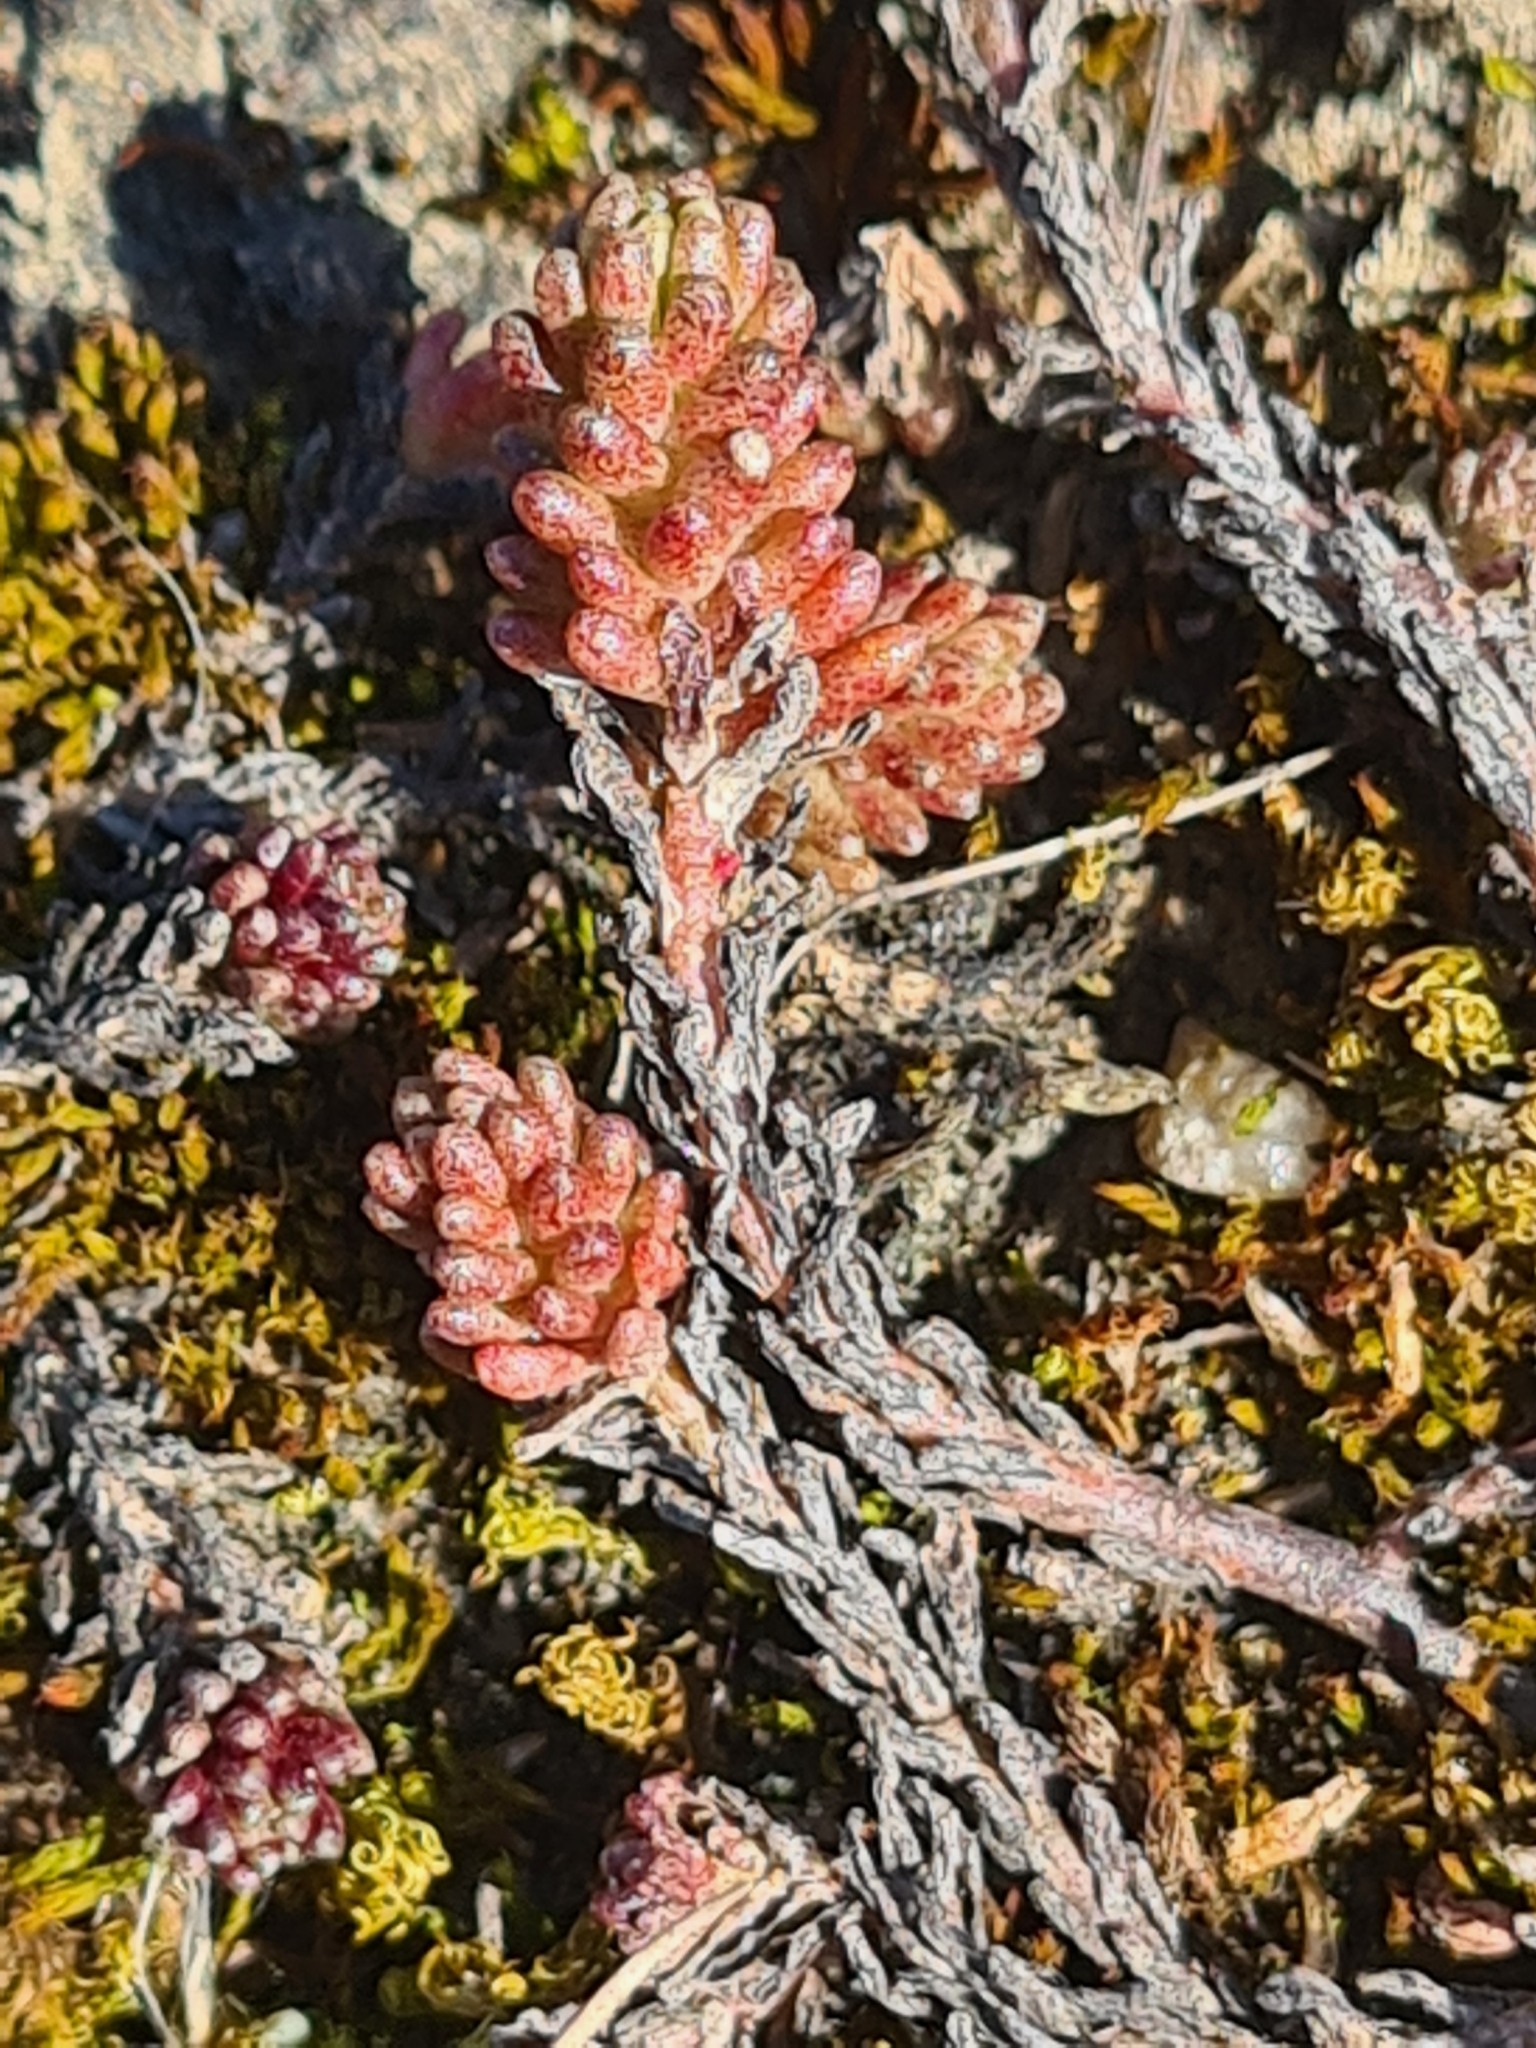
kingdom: Plantae
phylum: Tracheophyta
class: Magnoliopsida
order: Saxifragales
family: Crassulaceae
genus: Sedum
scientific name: Sedum sexangulare
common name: Tasteless stonecrop
